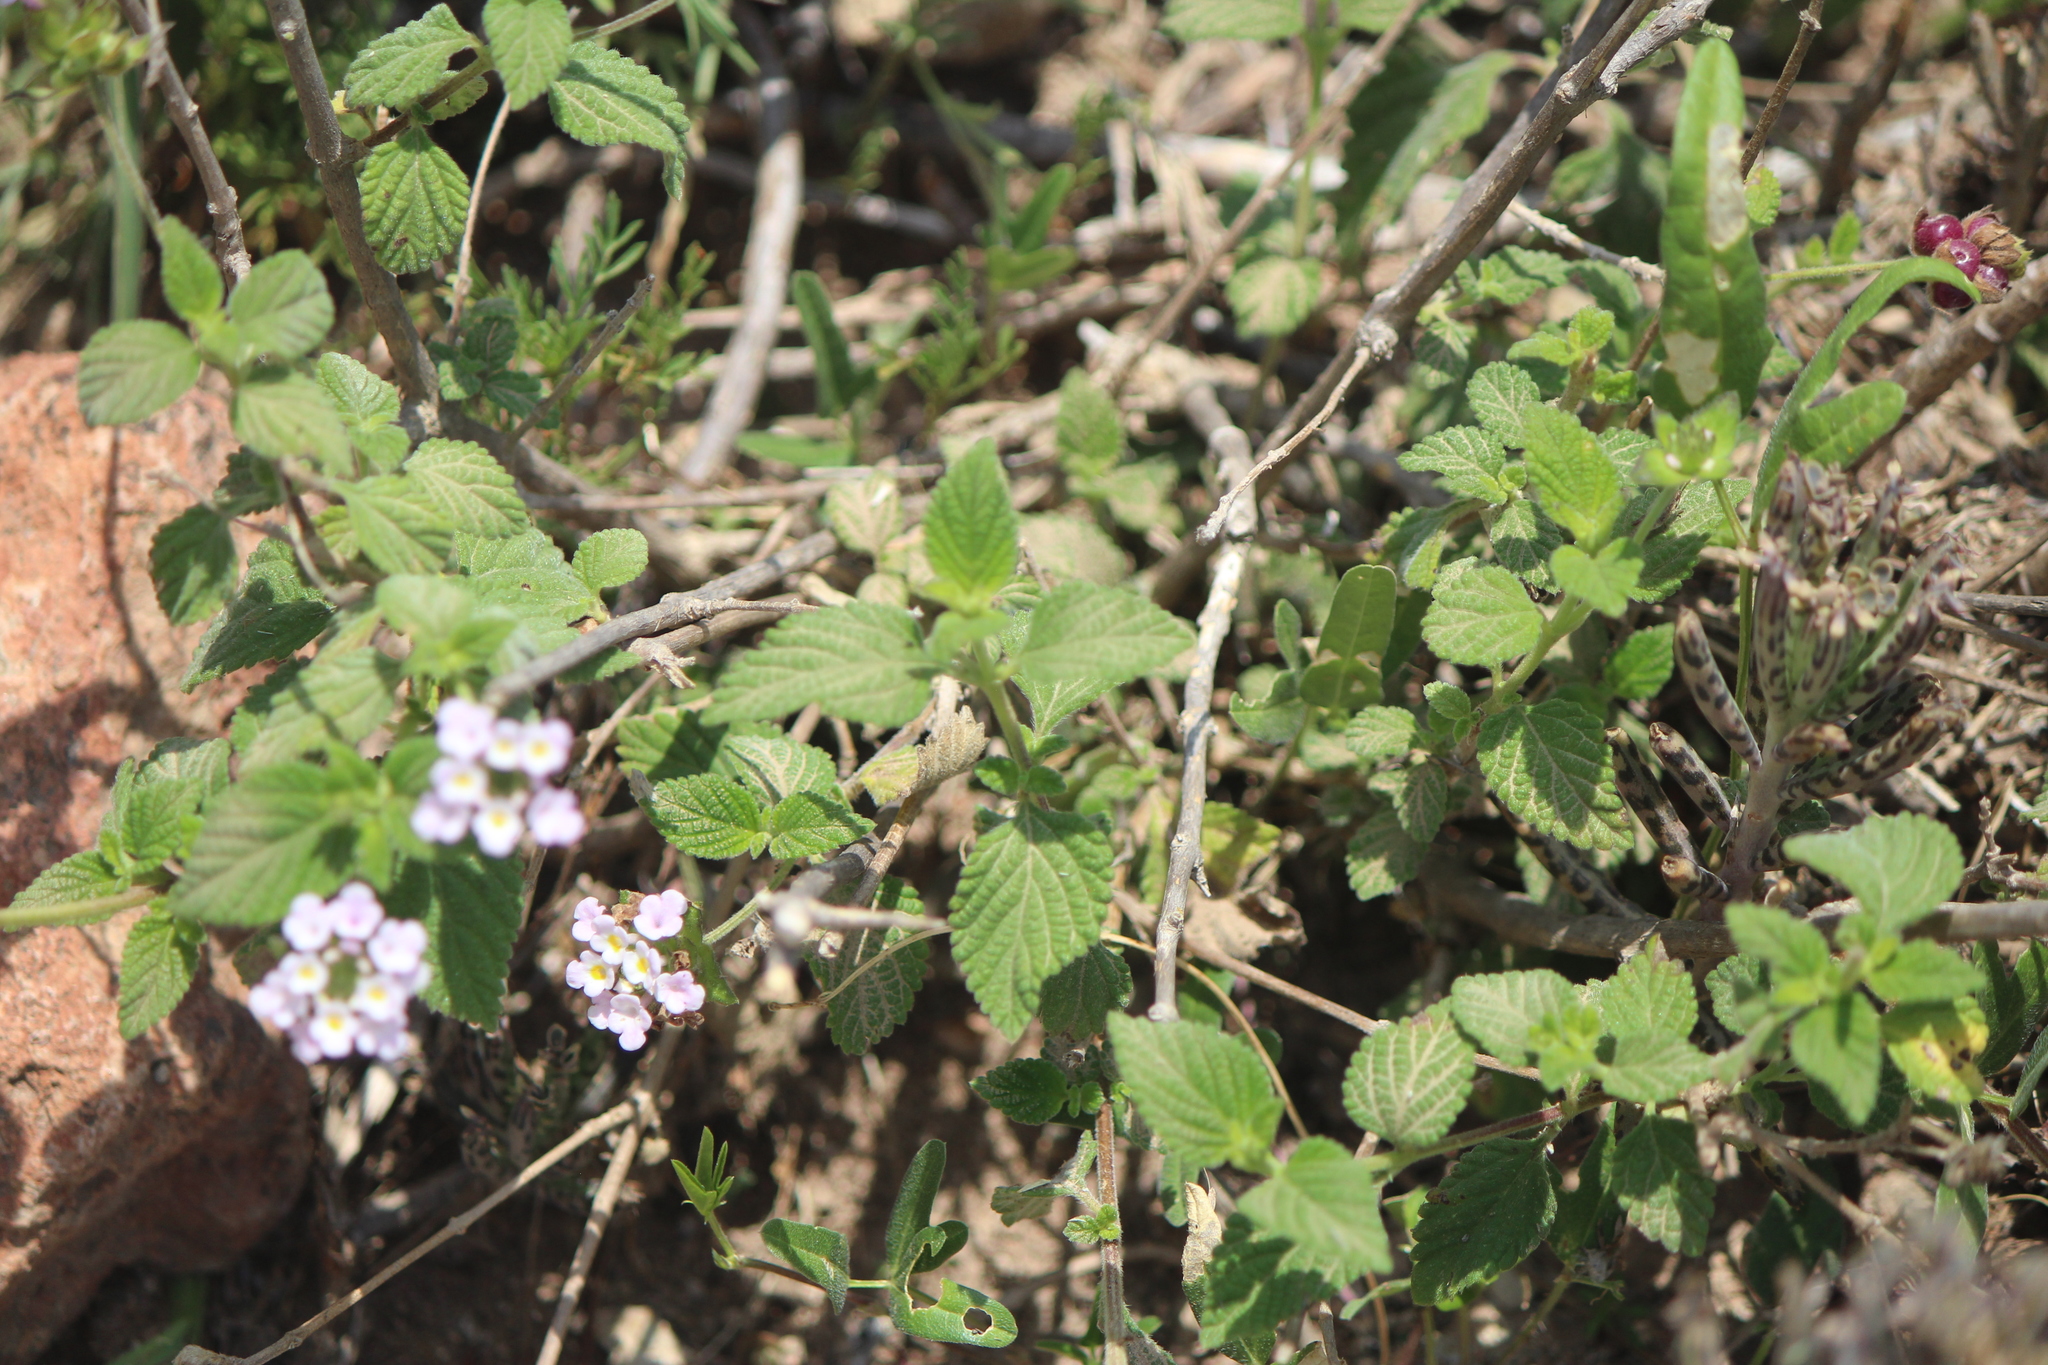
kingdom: Plantae
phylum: Tracheophyta
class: Magnoliopsida
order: Lamiales
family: Verbenaceae
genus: Lantana
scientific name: Lantana velutina
